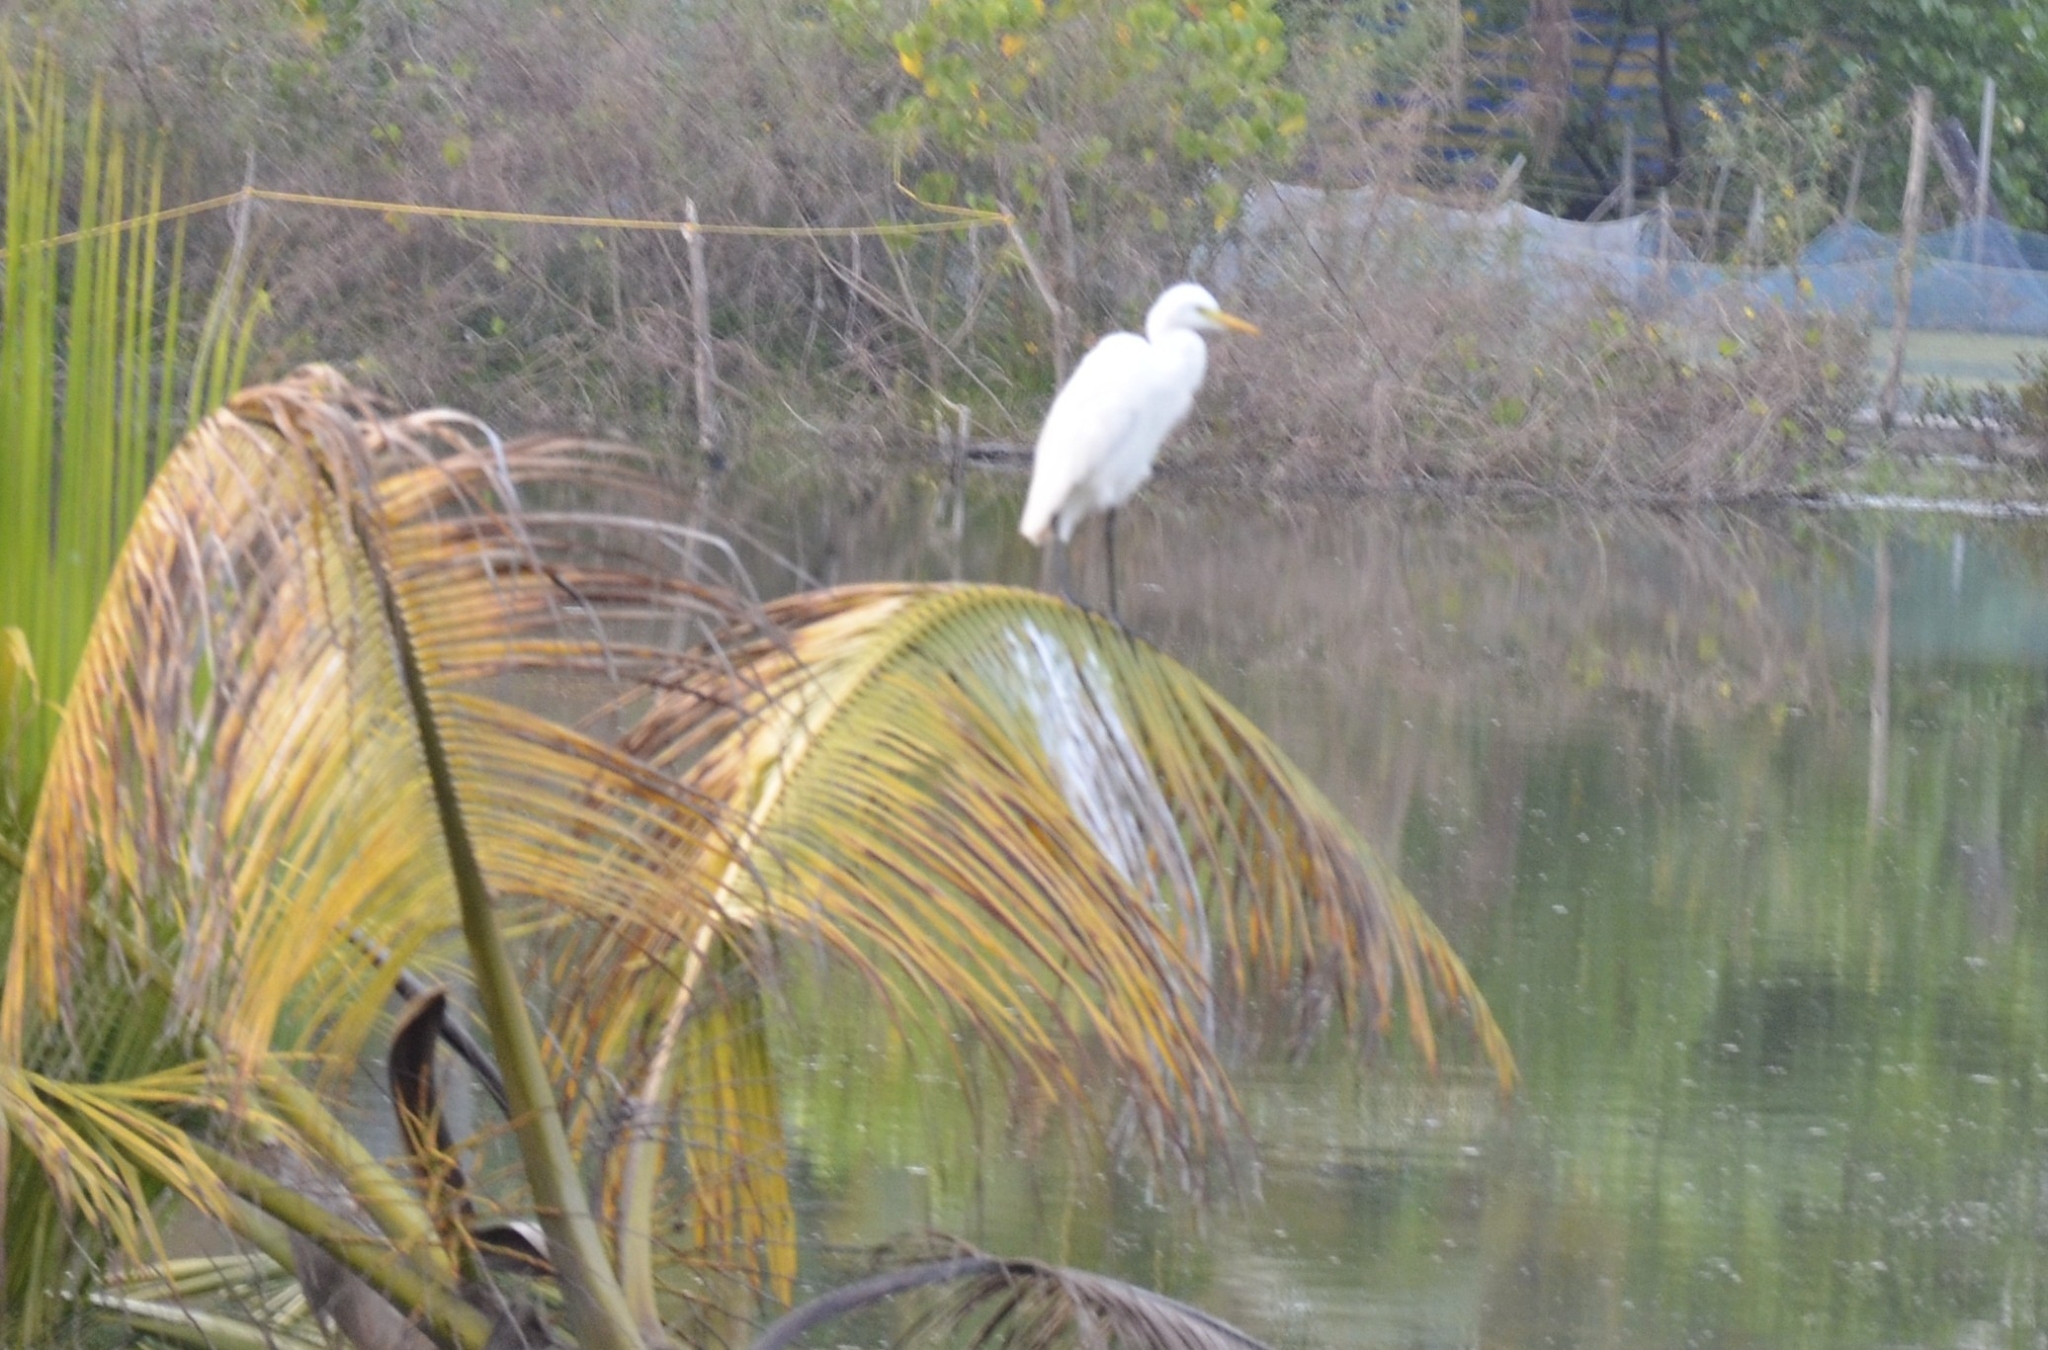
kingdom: Animalia
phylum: Chordata
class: Aves
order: Pelecaniformes
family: Ardeidae
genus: Bubulcus
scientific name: Bubulcus coromandus
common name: Eastern cattle egret
